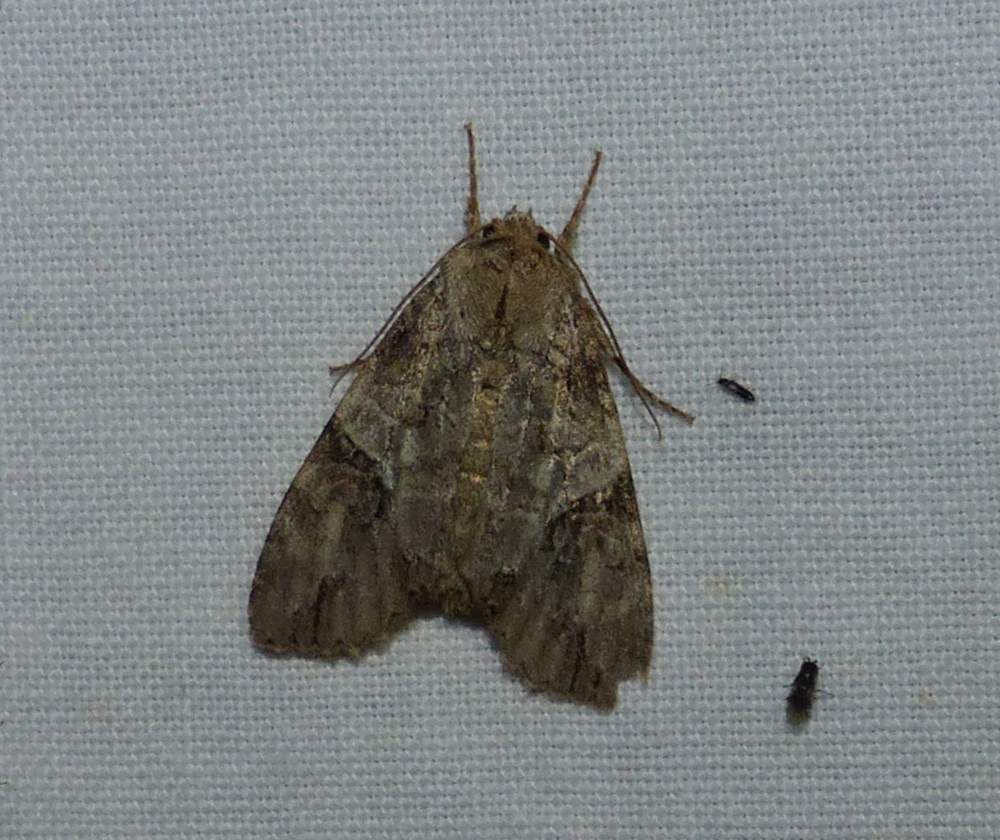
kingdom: Animalia
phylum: Arthropoda
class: Insecta
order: Lepidoptera
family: Noctuidae
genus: Achatia
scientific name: Achatia latex
